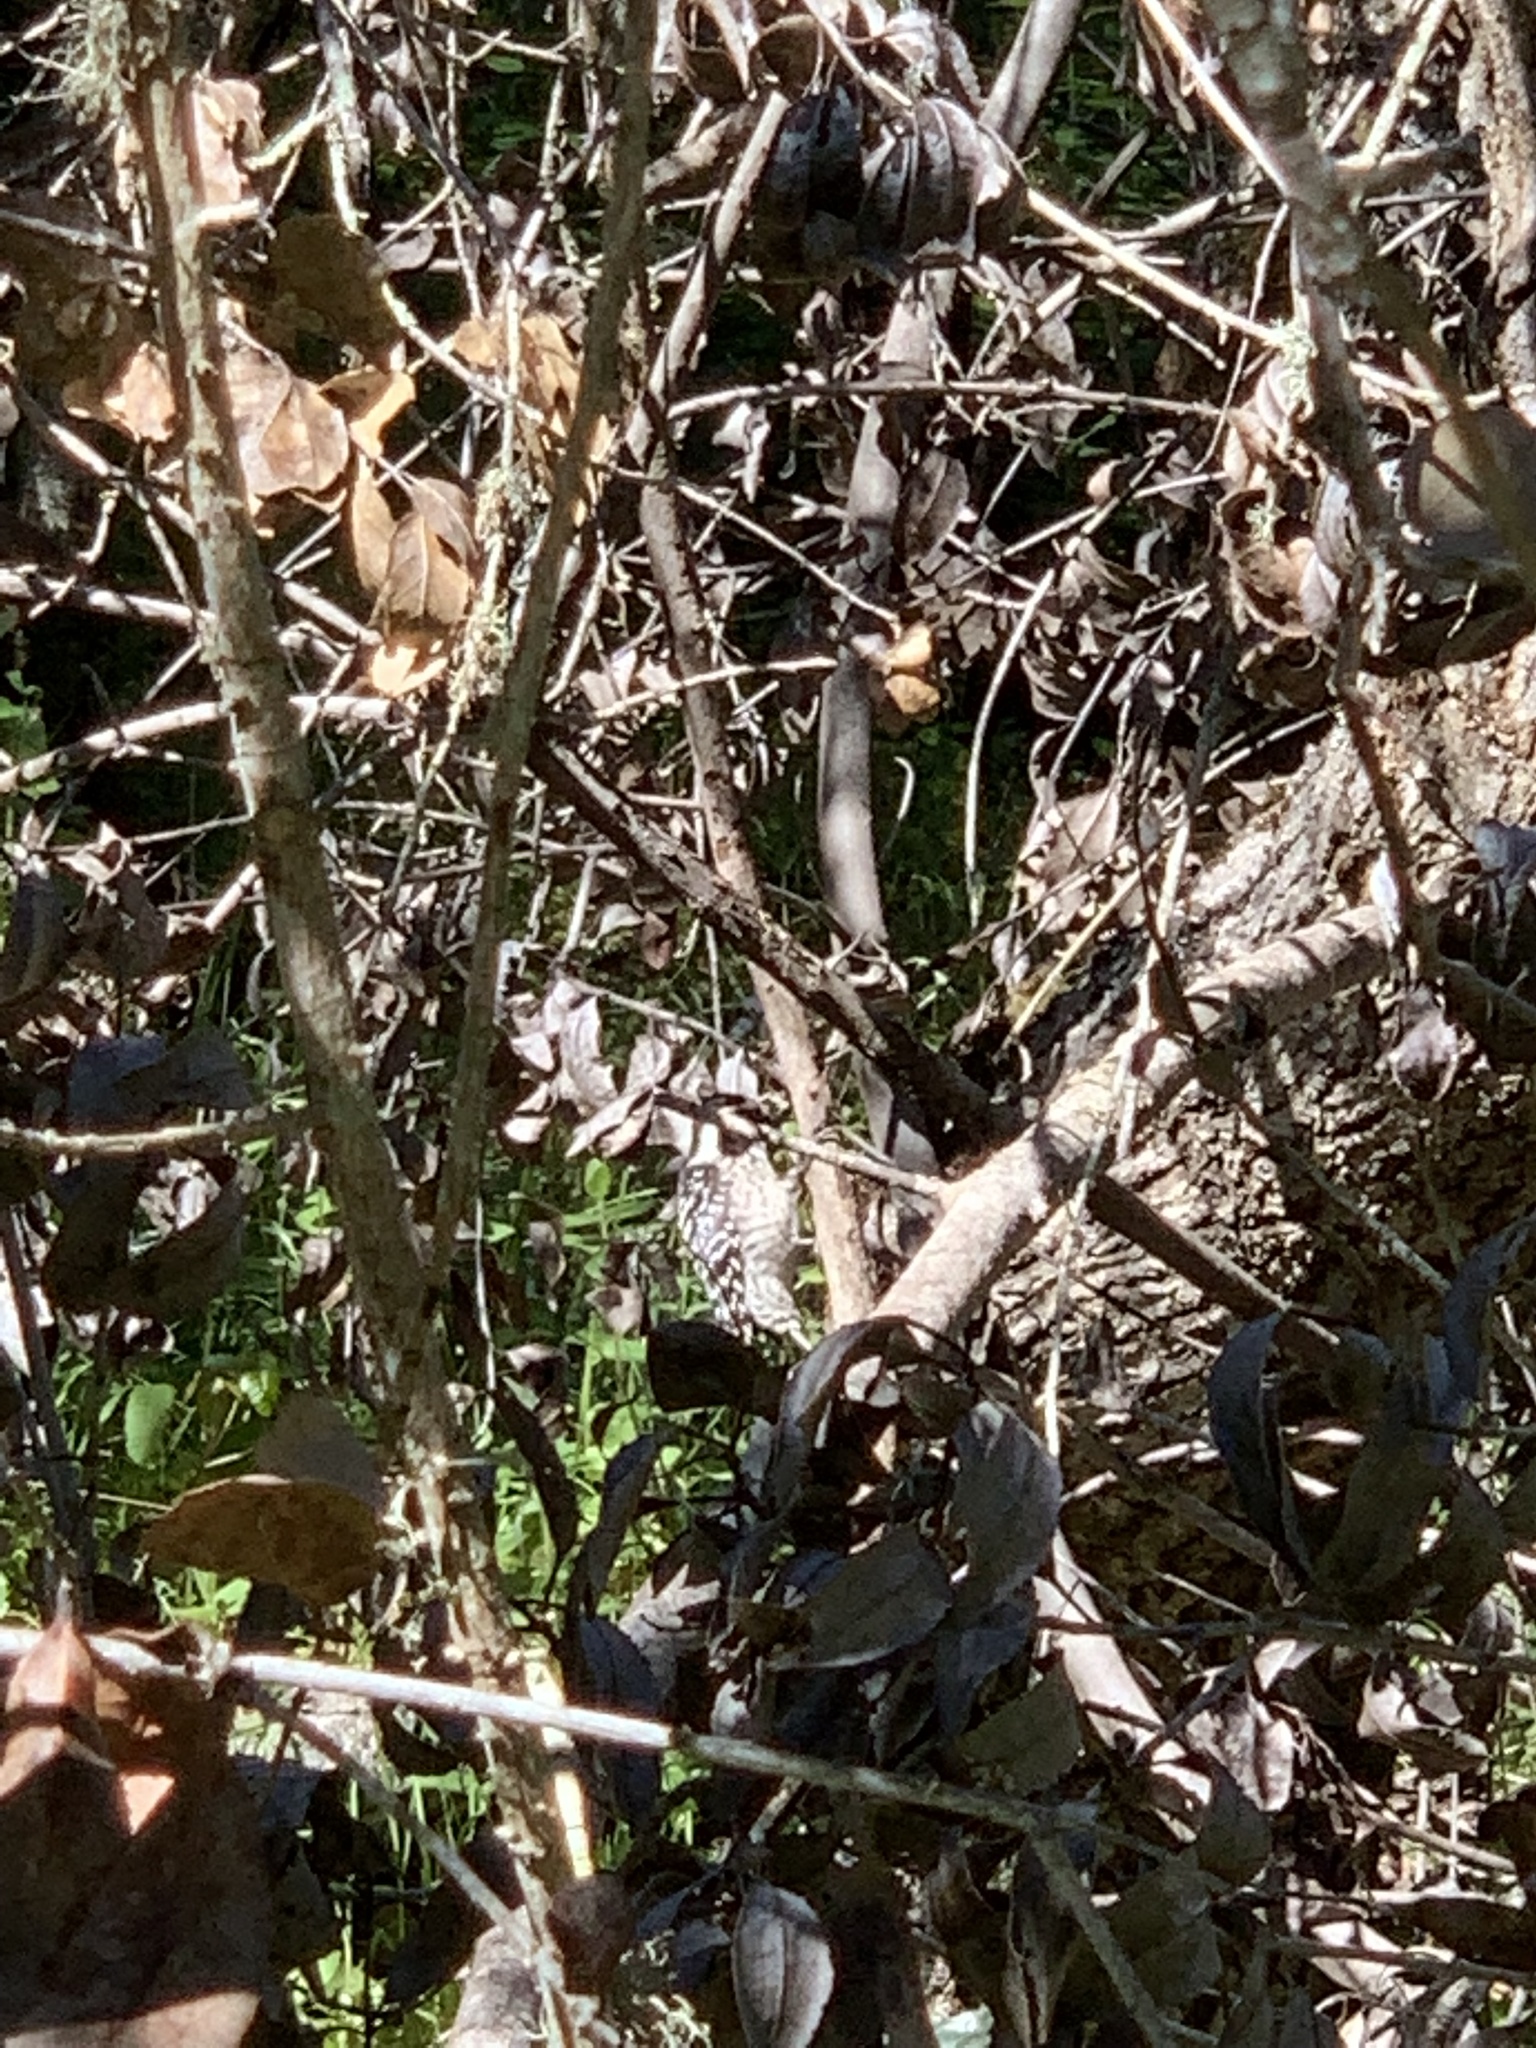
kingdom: Animalia
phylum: Chordata
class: Aves
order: Piciformes
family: Picidae
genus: Dryobates
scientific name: Dryobates nuttallii
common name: Nuttall's woodpecker
